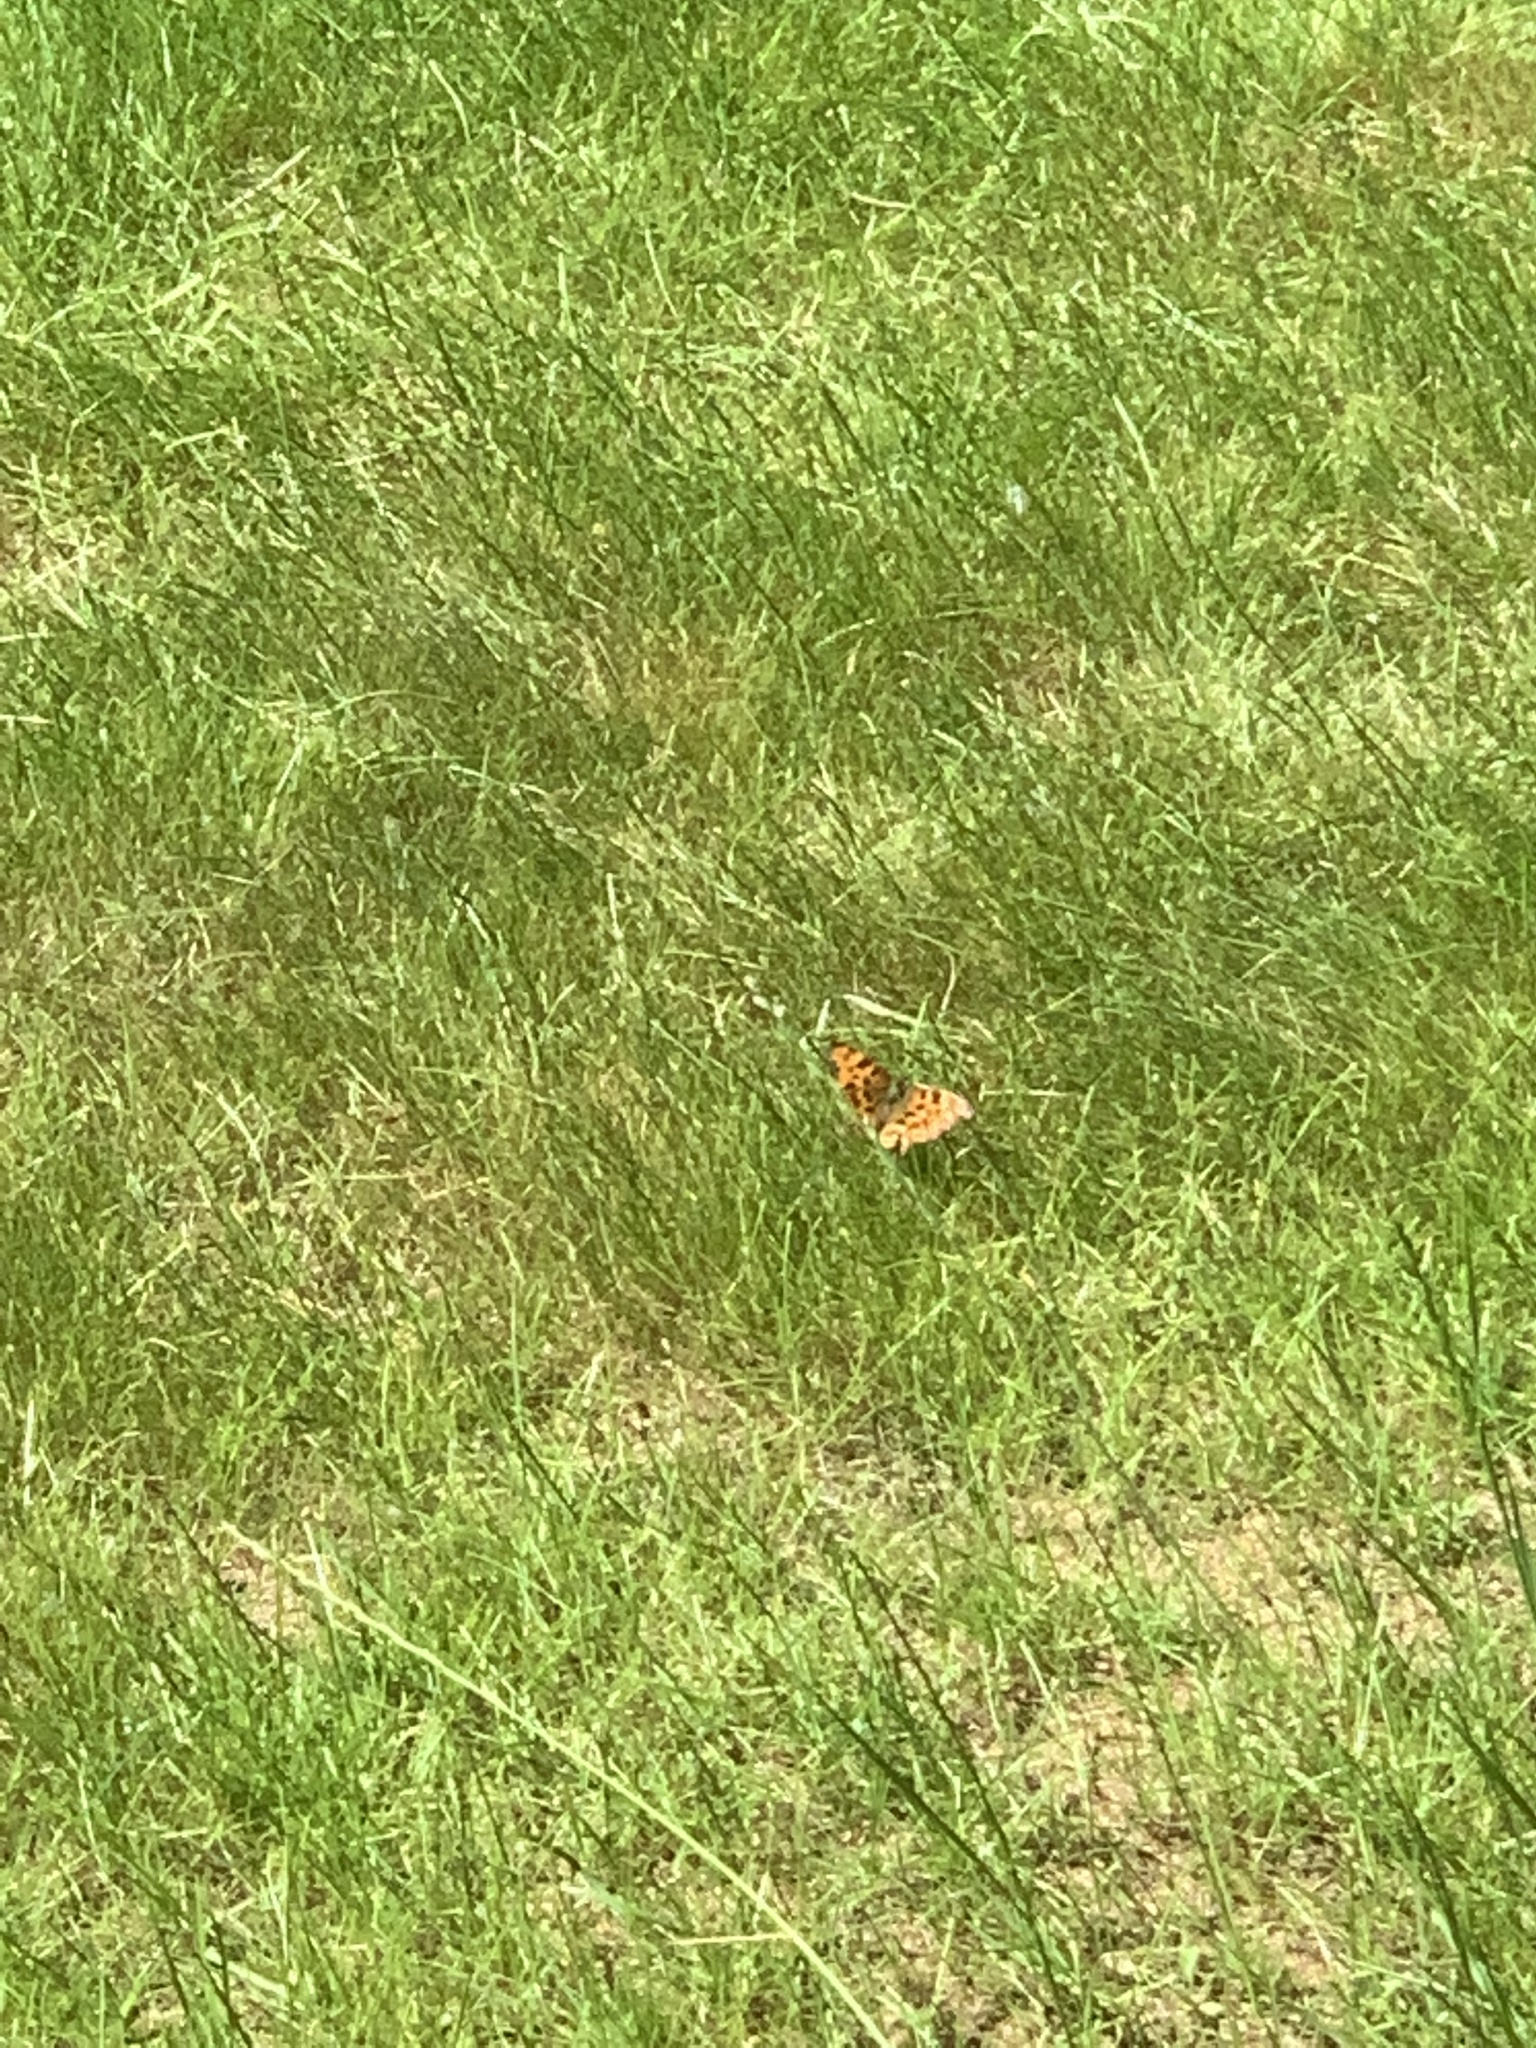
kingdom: Animalia
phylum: Arthropoda
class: Insecta
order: Lepidoptera
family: Nymphalidae
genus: Polygonia
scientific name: Polygonia c-album
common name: Comma
